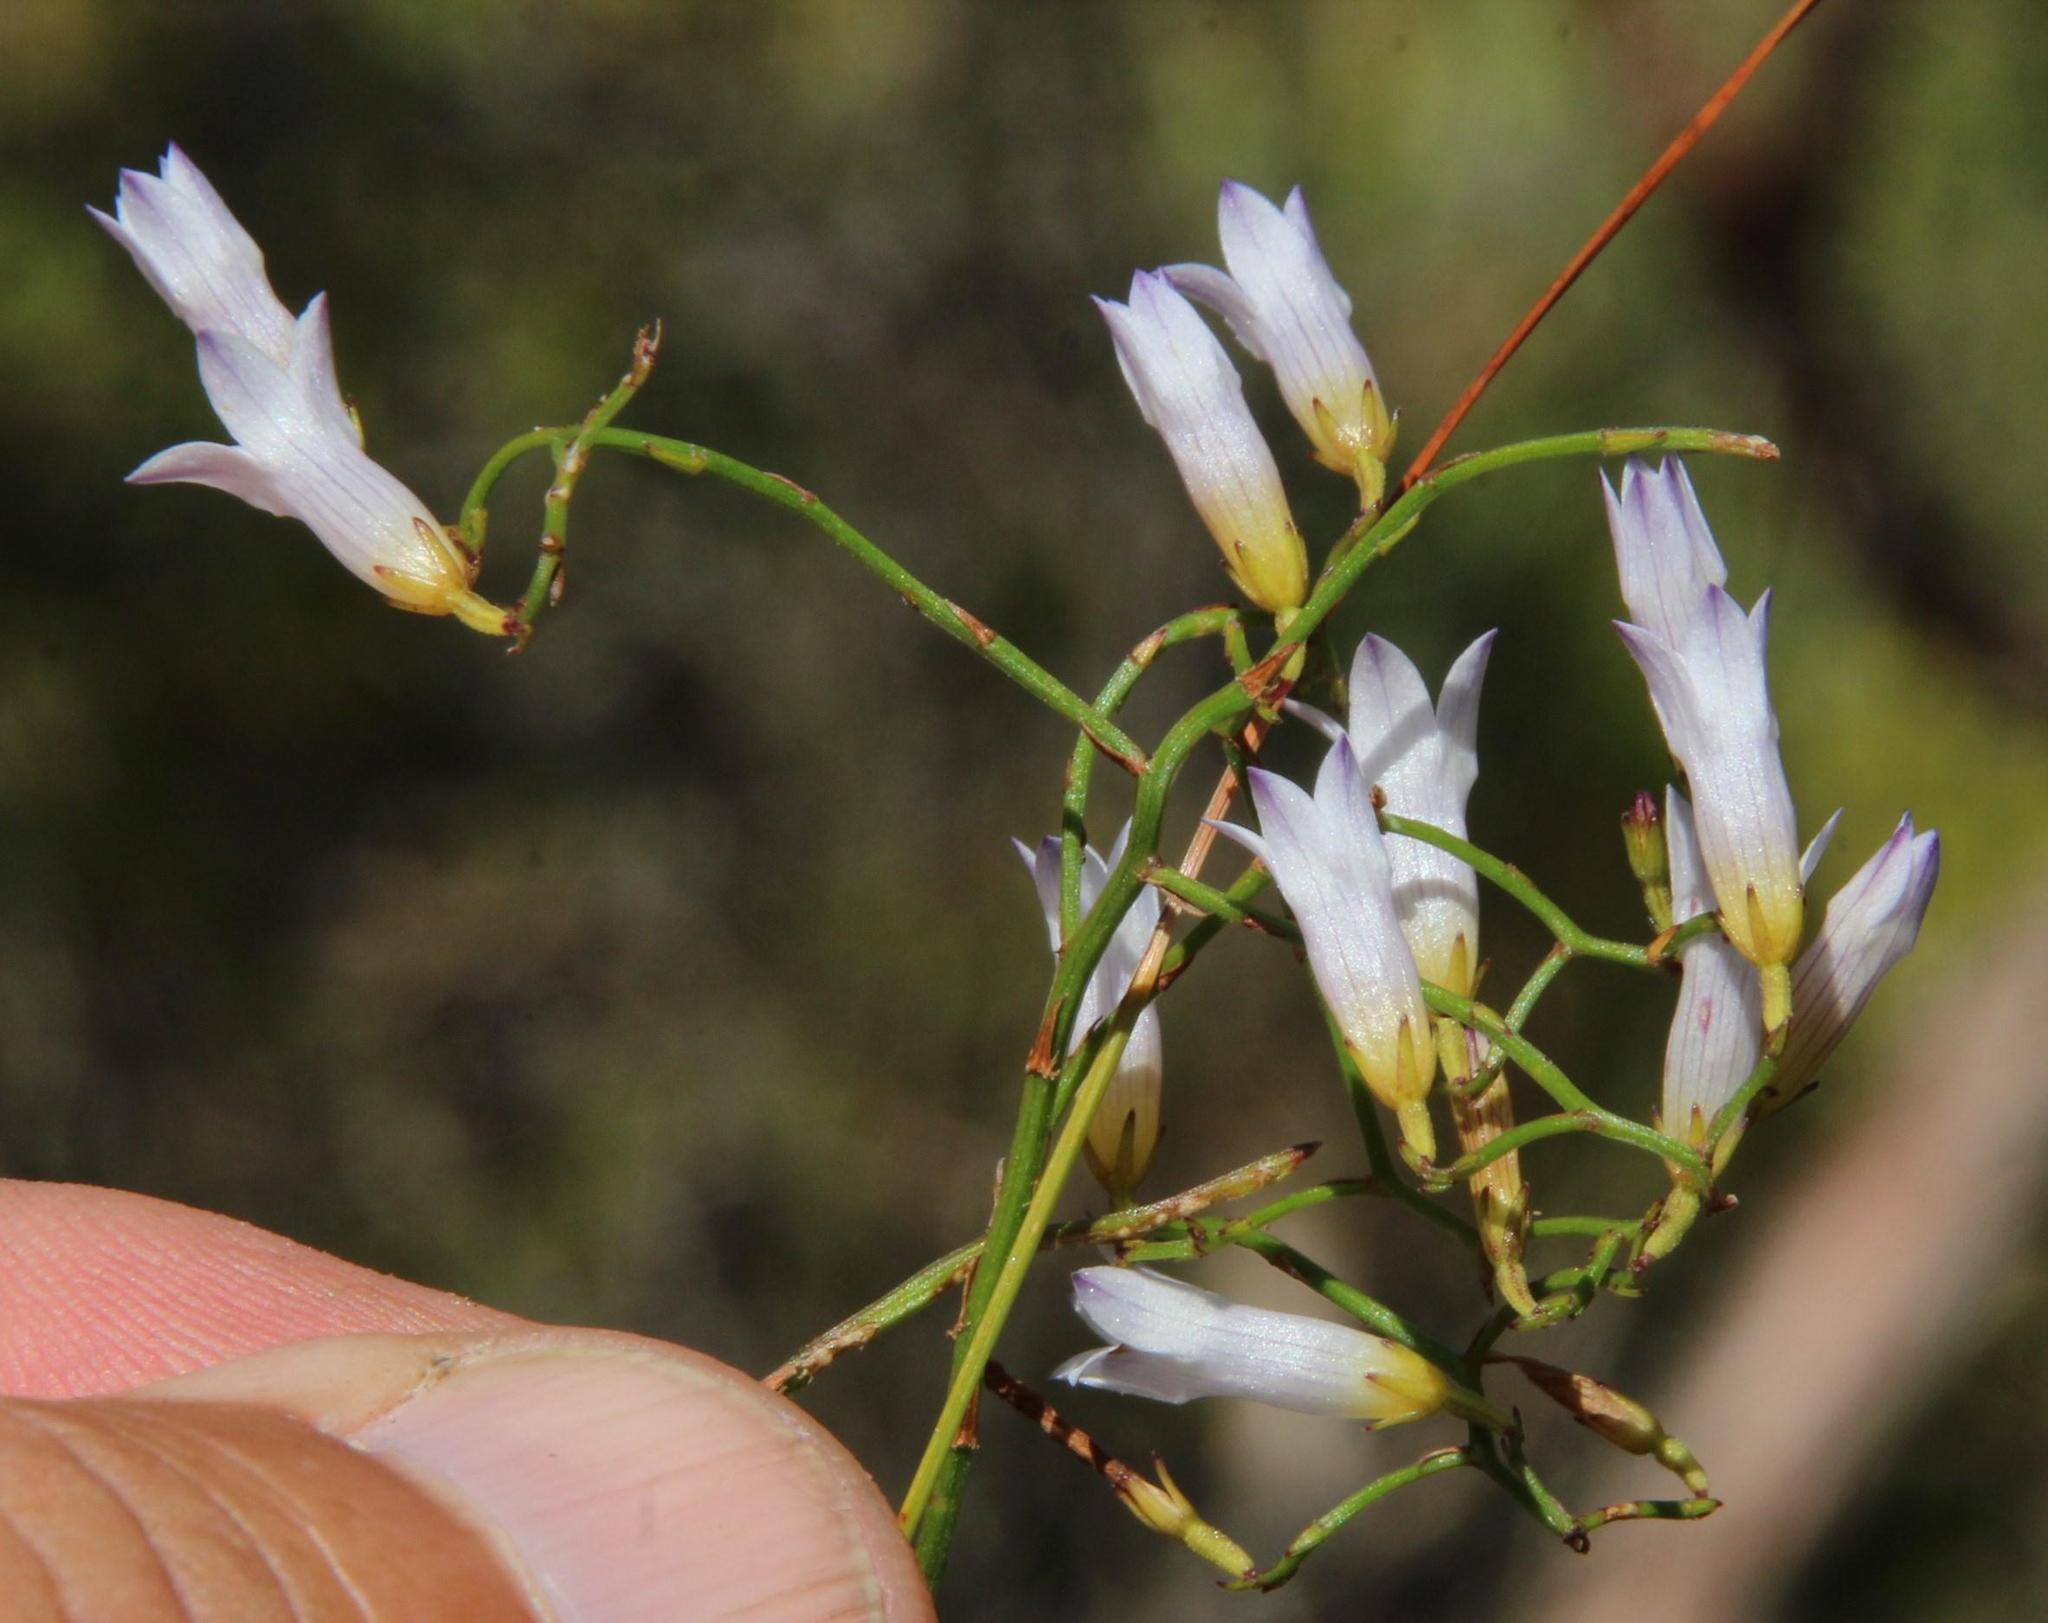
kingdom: Plantae
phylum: Tracheophyta
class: Magnoliopsida
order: Asterales
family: Campanulaceae
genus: Siphocodon
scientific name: Siphocodon debilis
